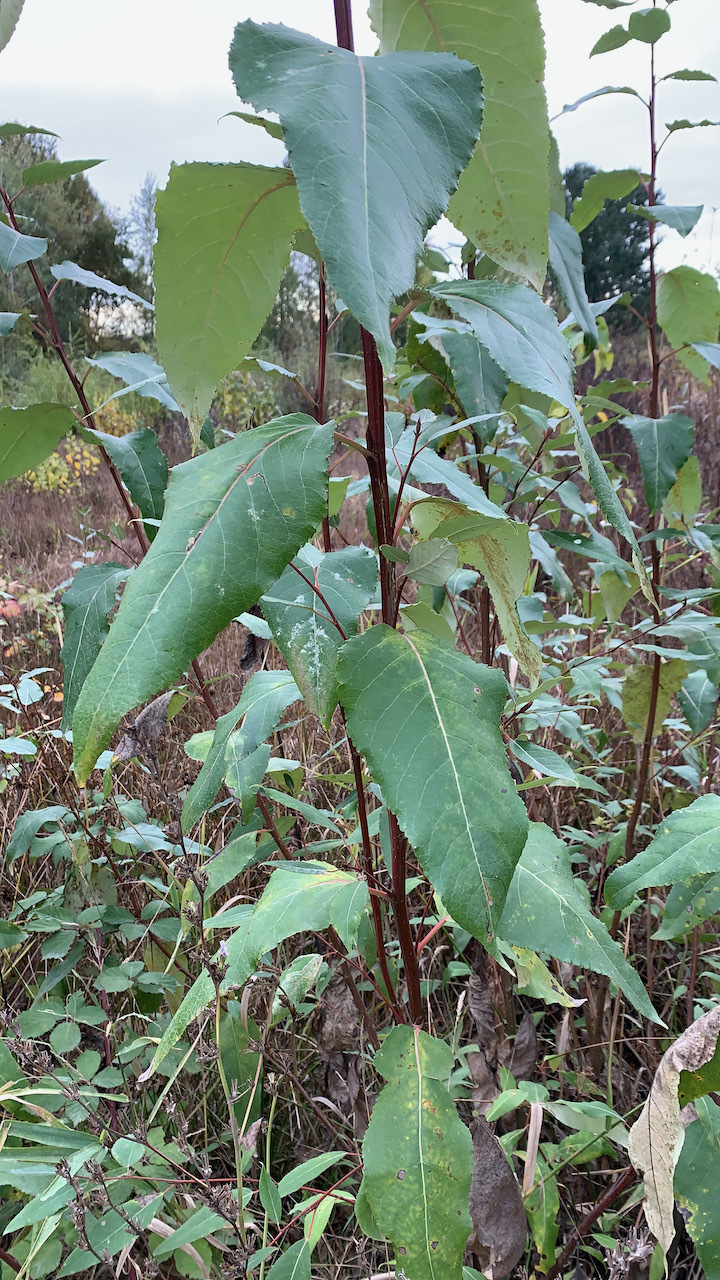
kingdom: Plantae
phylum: Tracheophyta
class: Magnoliopsida
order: Malpighiales
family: Salicaceae
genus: Populus
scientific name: Populus trichocarpa
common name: Black cottonwood
